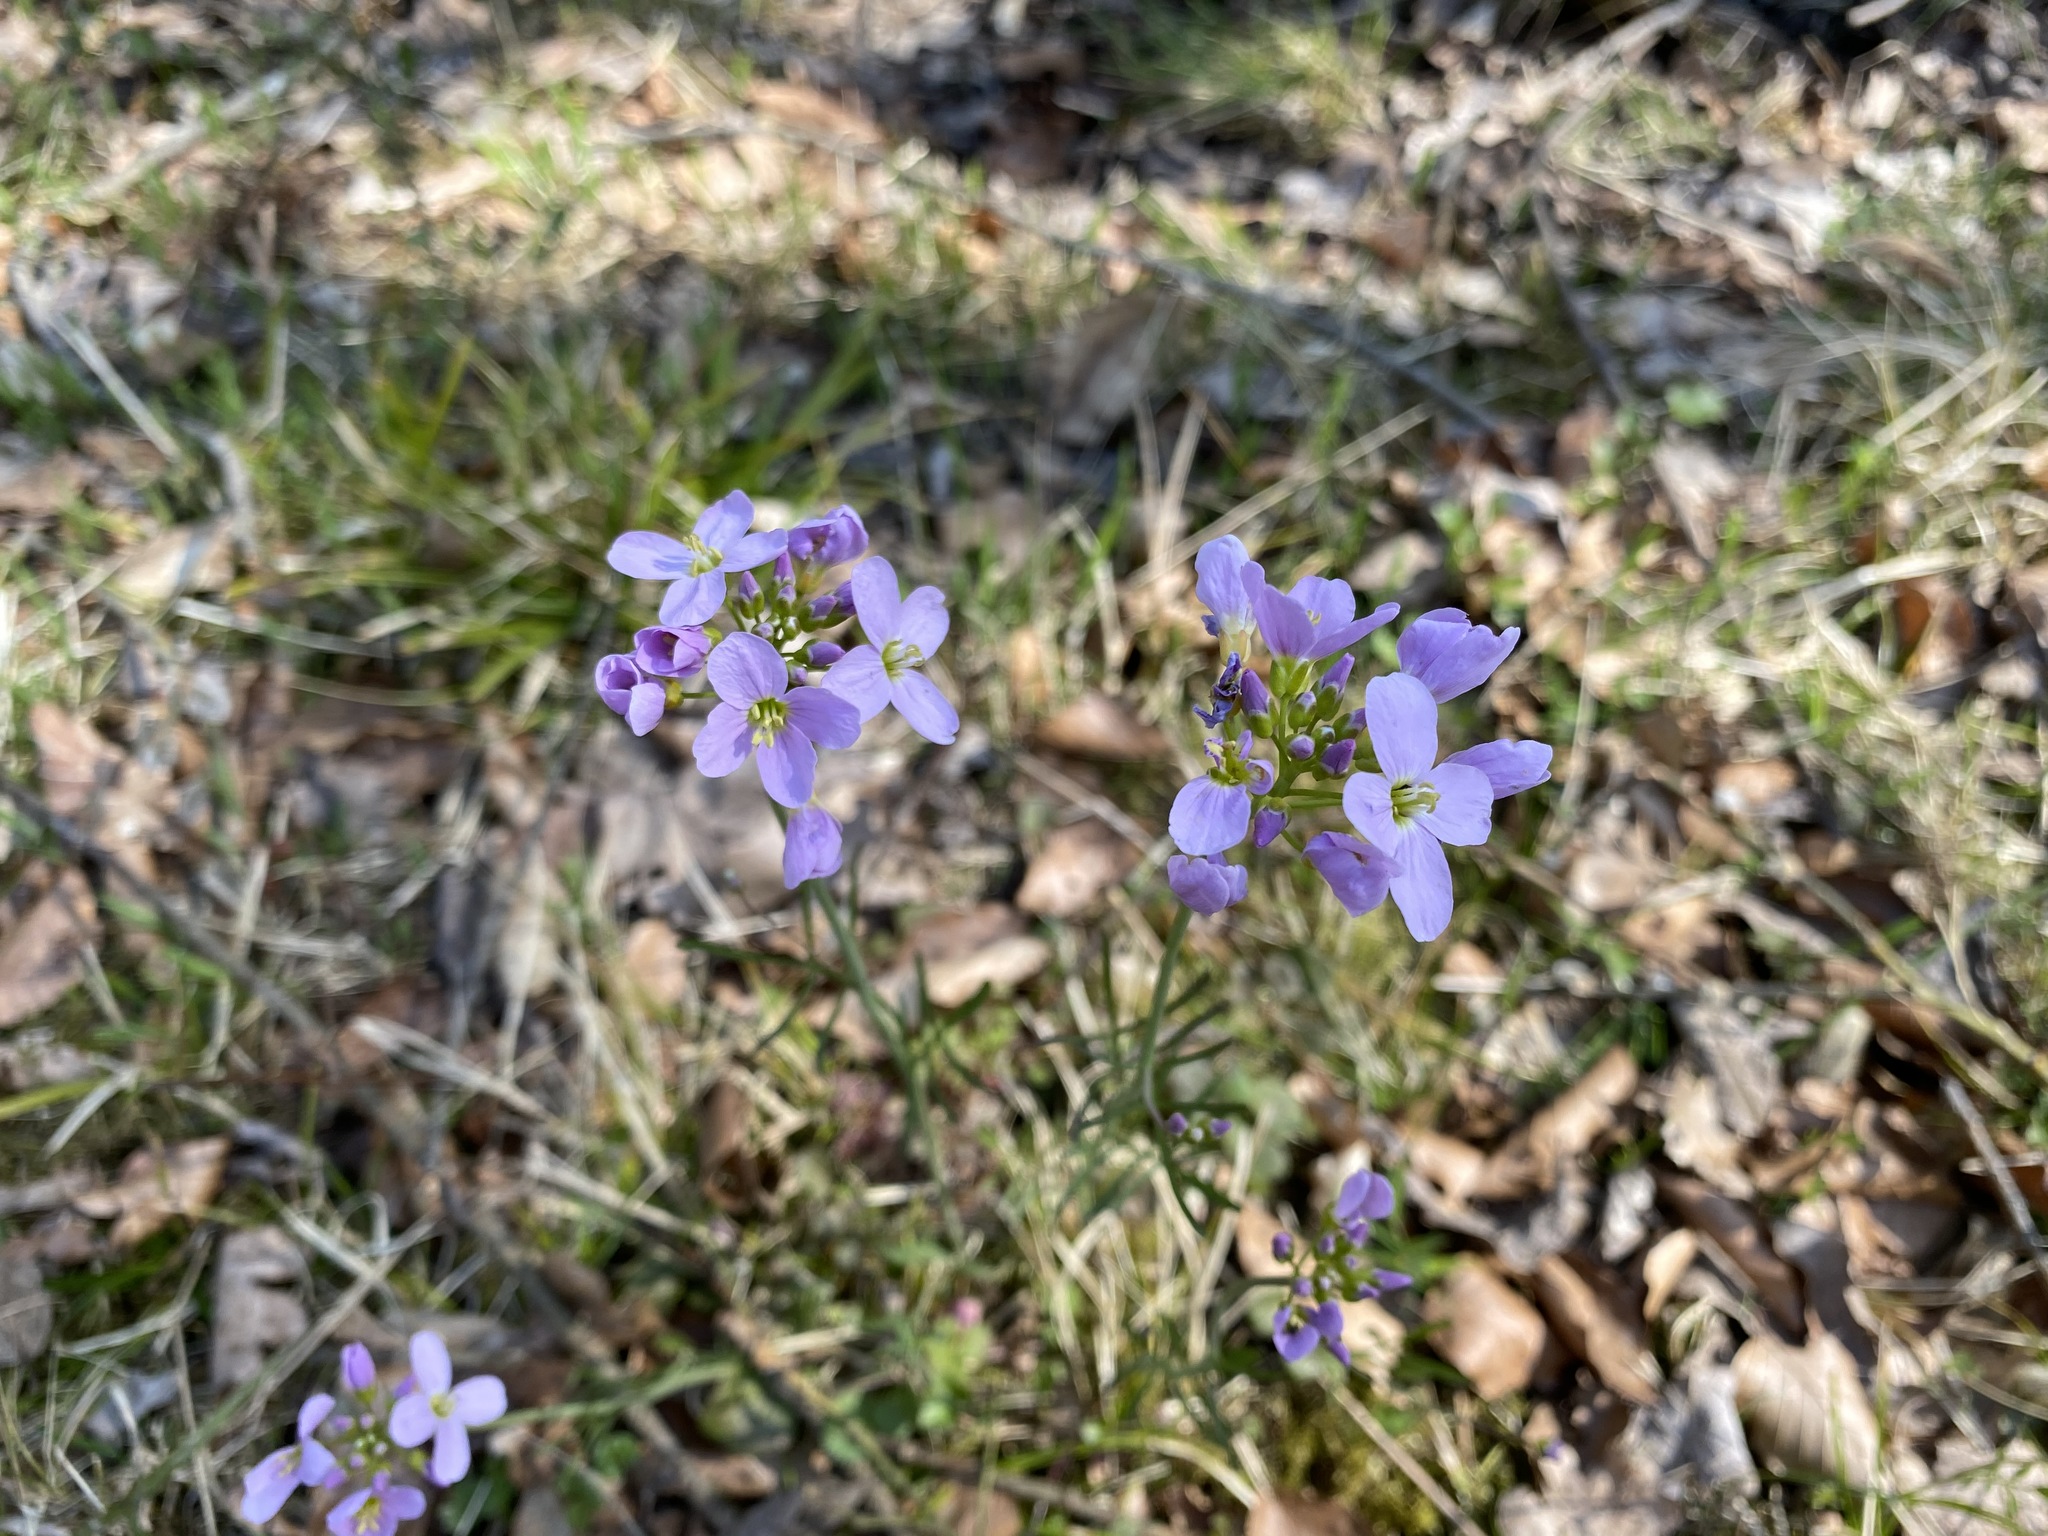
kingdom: Plantae
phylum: Tracheophyta
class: Magnoliopsida
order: Brassicales
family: Brassicaceae
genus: Cardamine
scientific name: Cardamine pratensis
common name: Cuckoo flower
